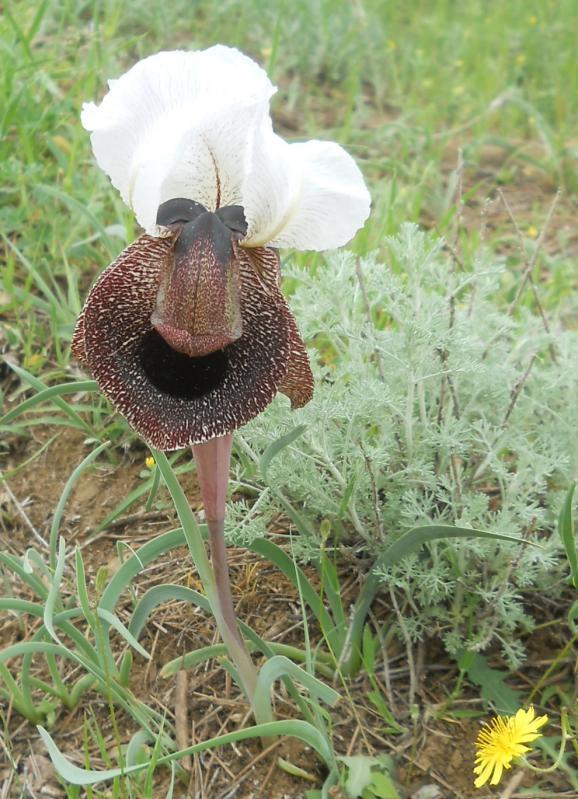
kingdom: Plantae
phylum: Tracheophyta
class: Liliopsida
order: Asparagales
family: Iridaceae
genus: Iris
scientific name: Iris iberica
